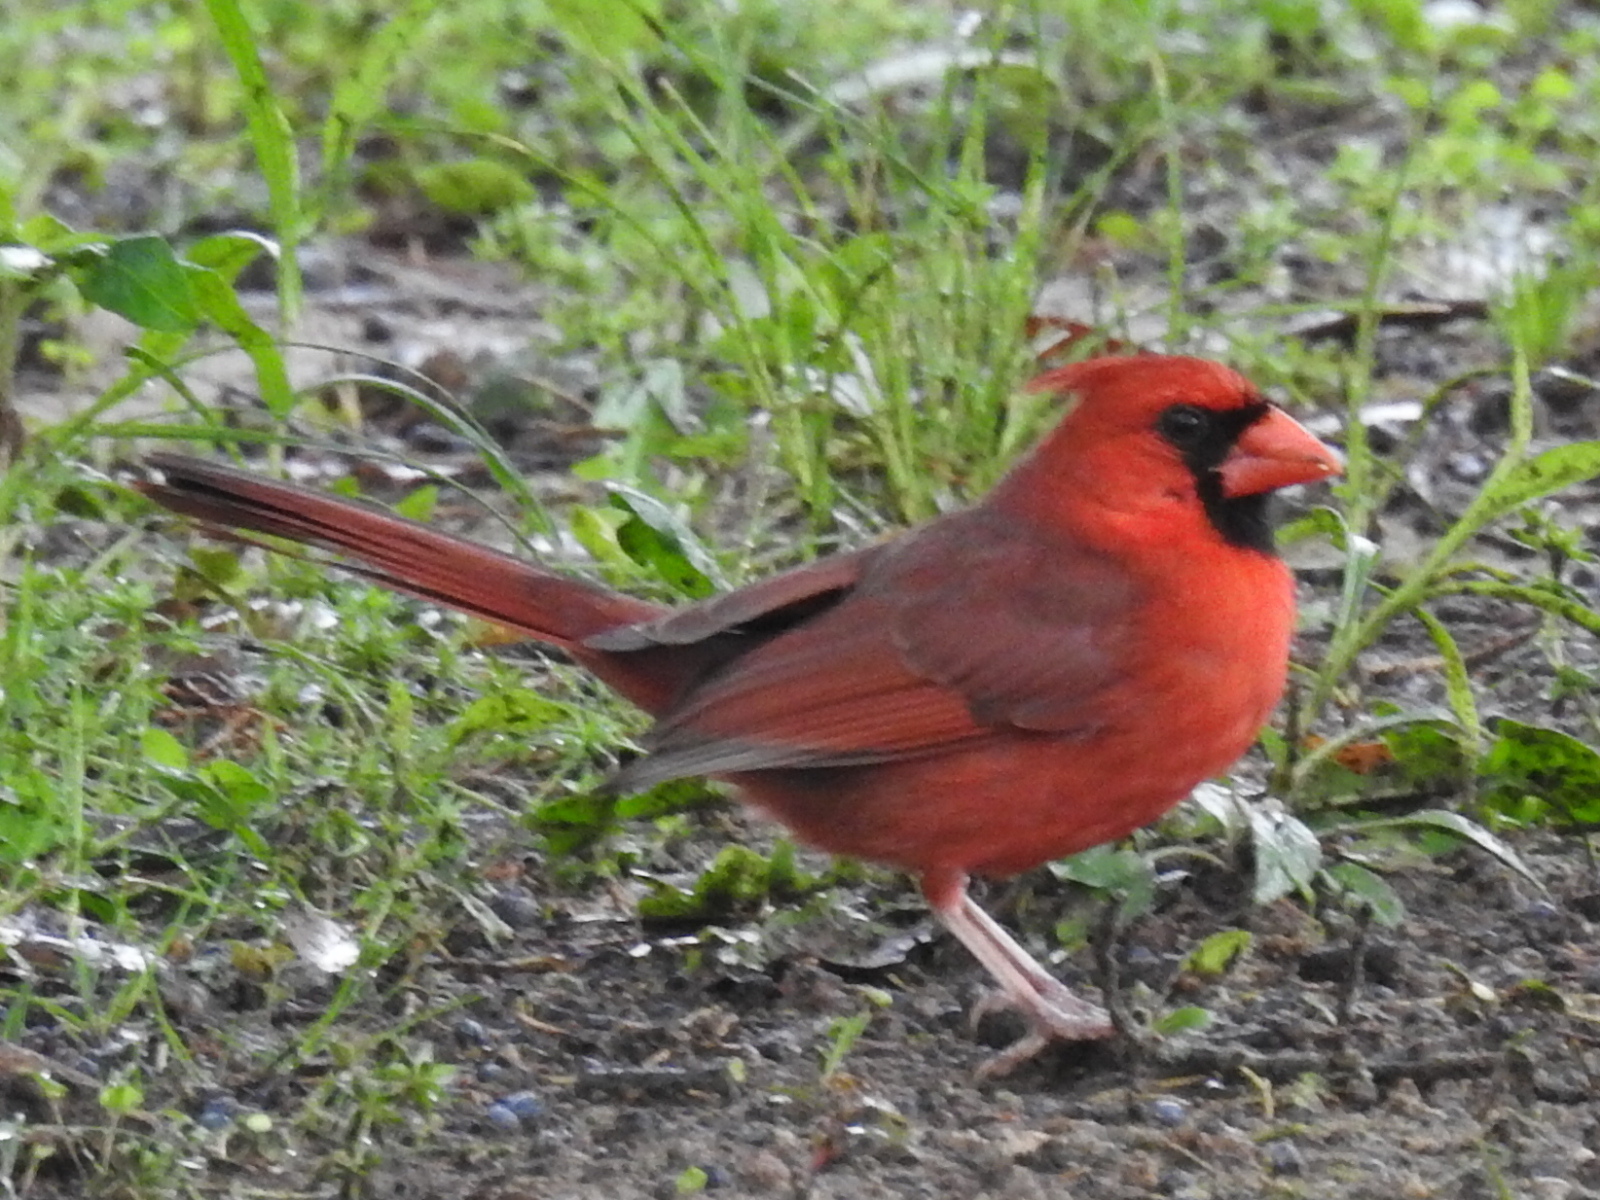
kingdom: Animalia
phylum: Chordata
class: Aves
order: Passeriformes
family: Cardinalidae
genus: Cardinalis
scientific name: Cardinalis cardinalis
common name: Northern cardinal
